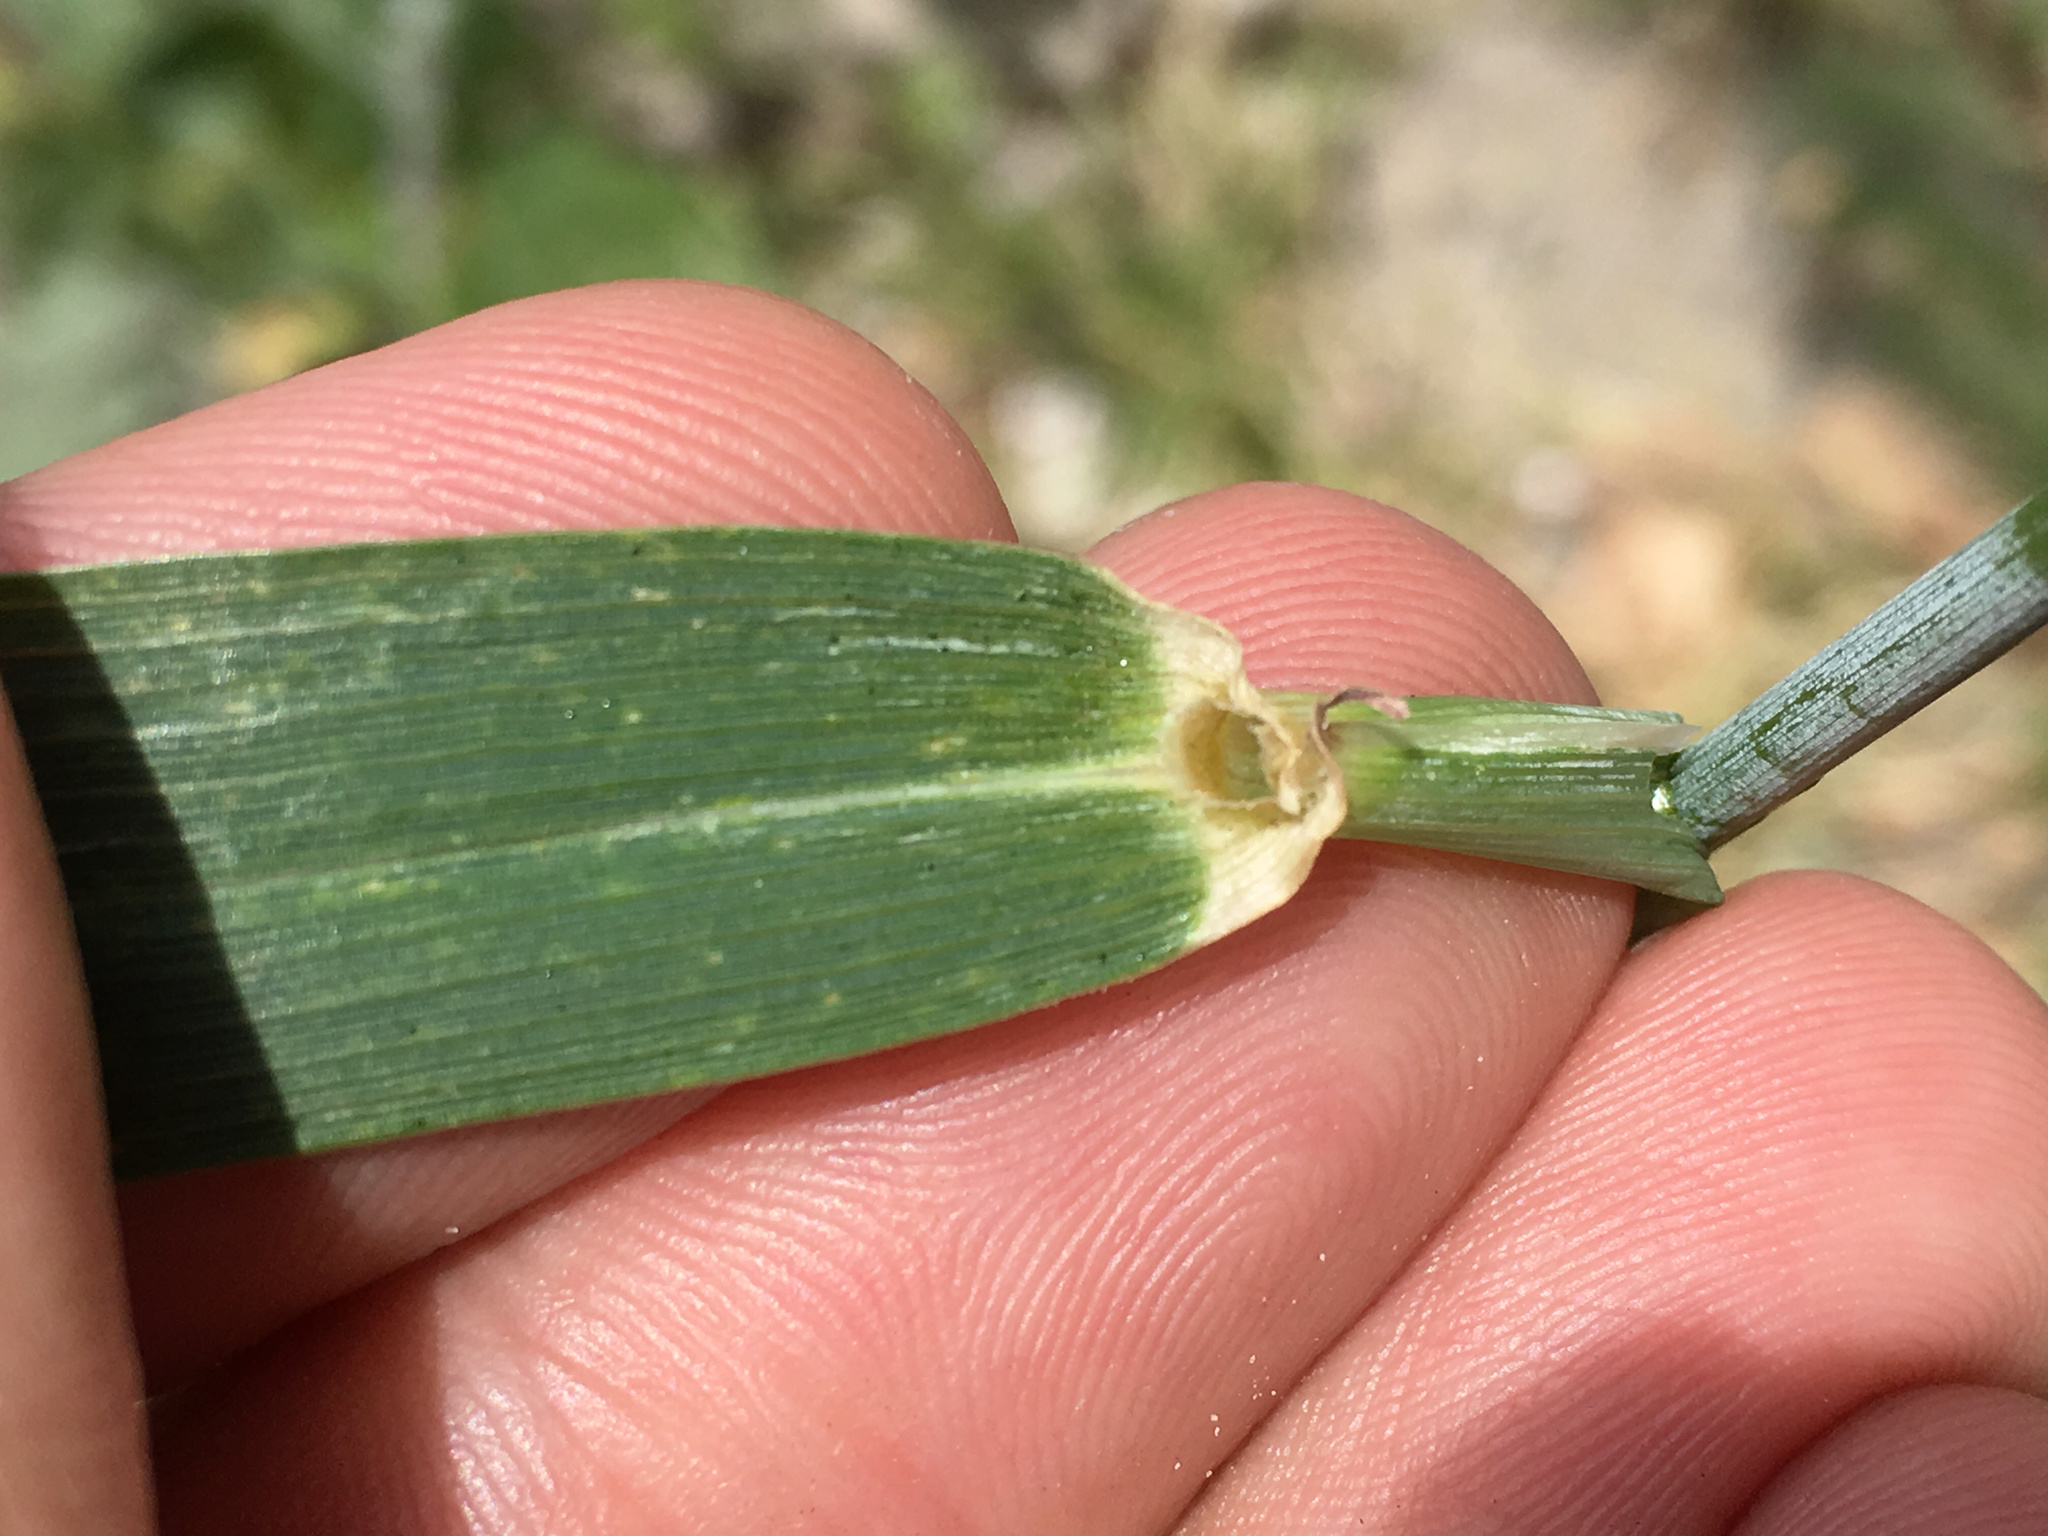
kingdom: Plantae
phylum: Tracheophyta
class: Liliopsida
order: Poales
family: Poaceae
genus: Hordeum
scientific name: Hordeum vulgare
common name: Common barley
